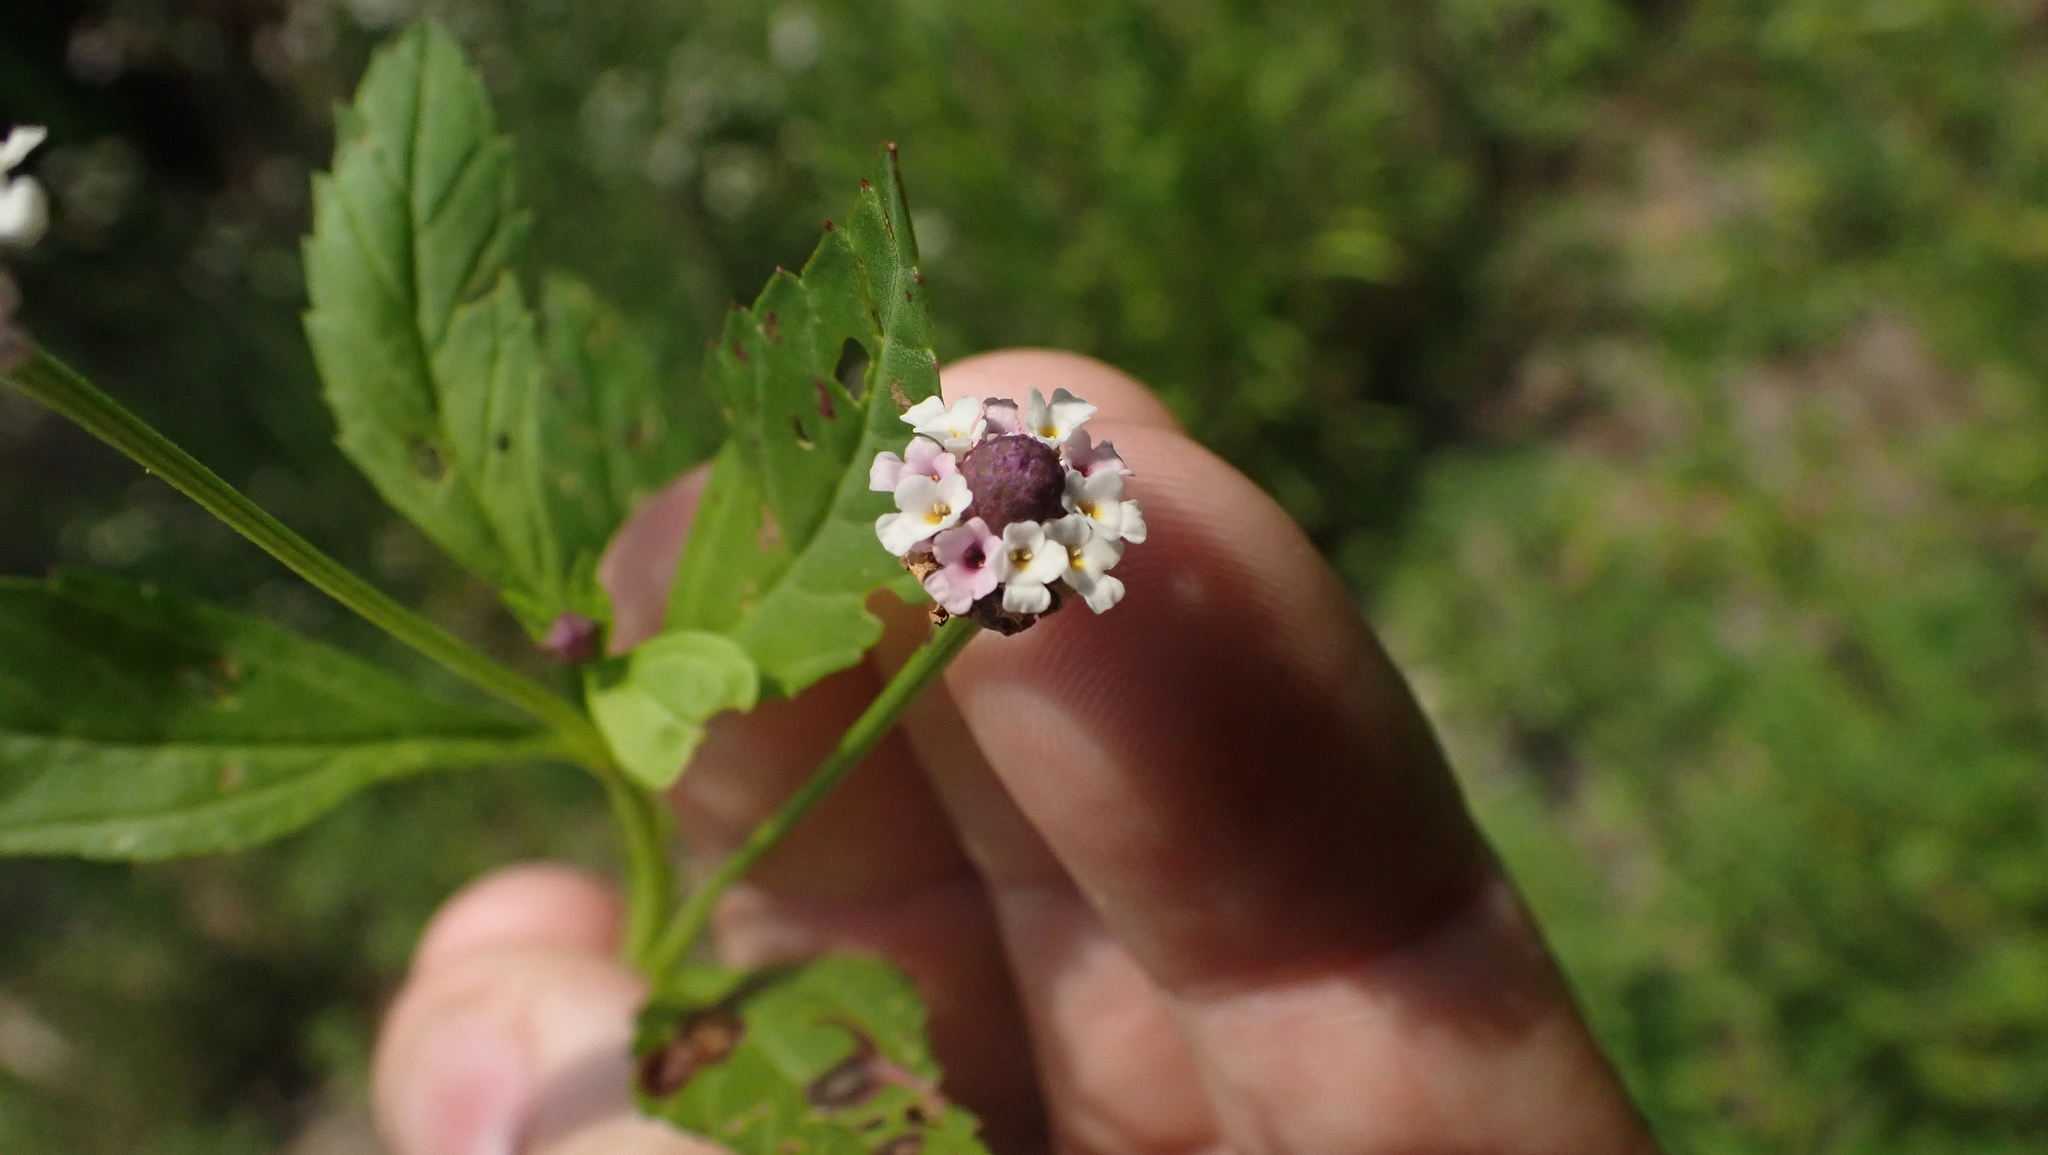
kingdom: Plantae
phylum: Tracheophyta
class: Magnoliopsida
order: Lamiales
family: Verbenaceae
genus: Phyla
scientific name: Phyla lanceolata
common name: Northern fogfruit
